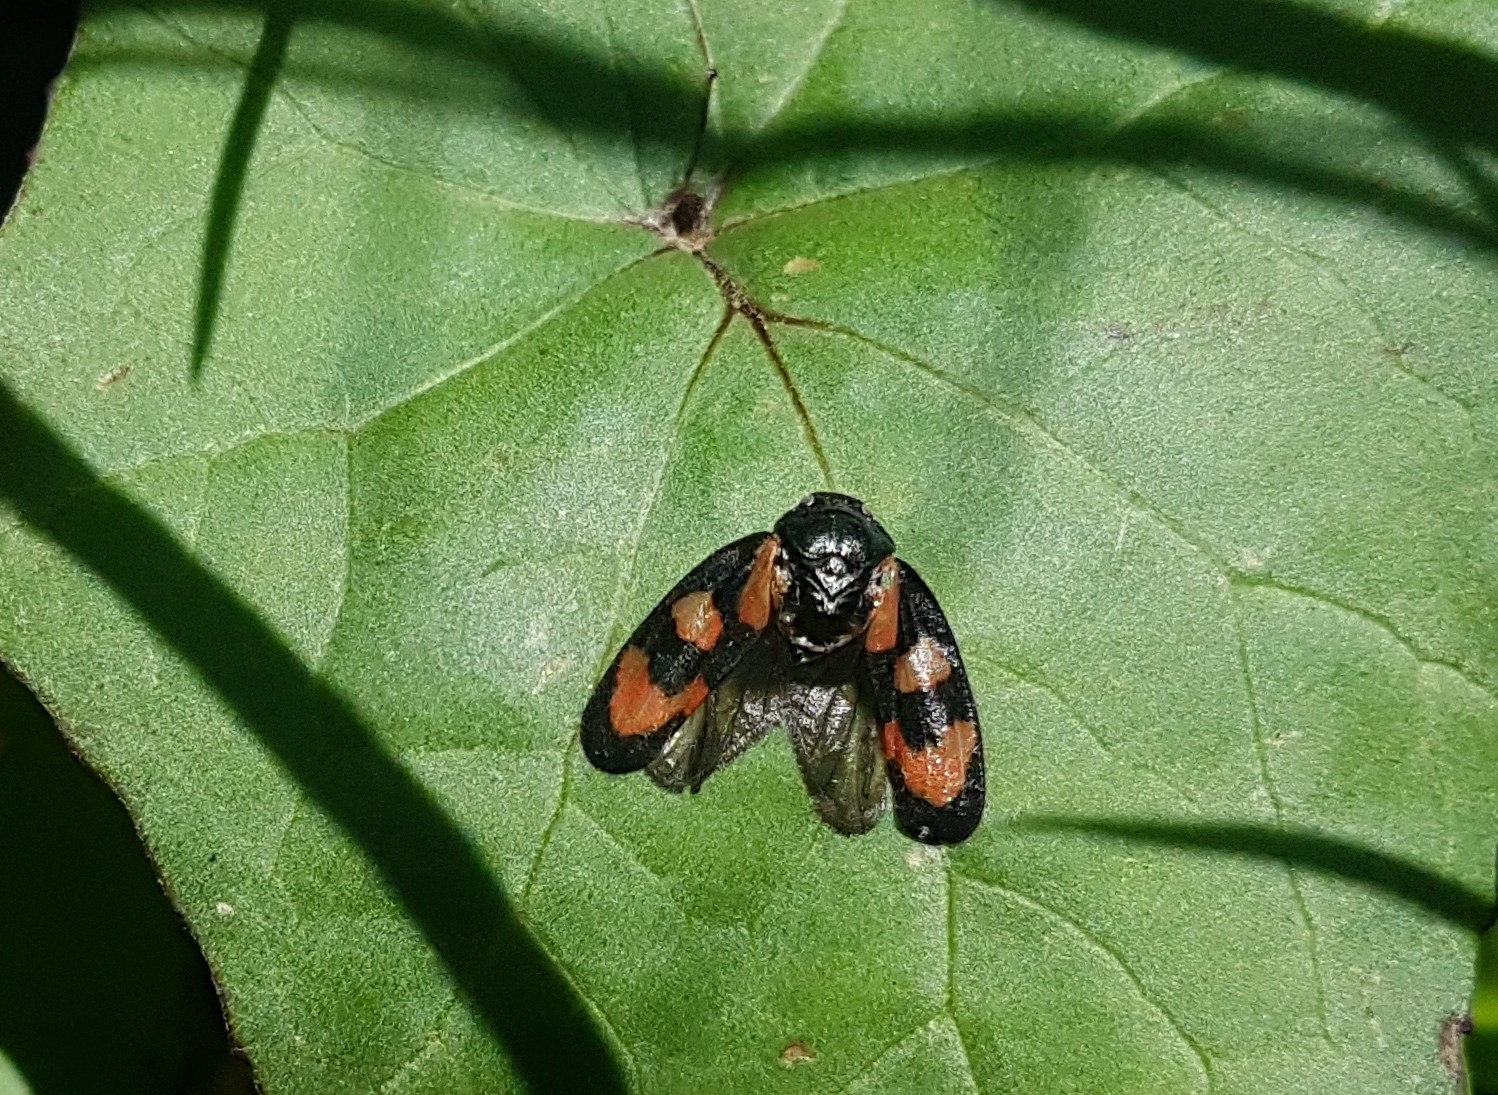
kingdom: Animalia
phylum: Arthropoda
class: Insecta
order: Hemiptera
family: Cercopidae
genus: Cercopis
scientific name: Cercopis vulnerata
